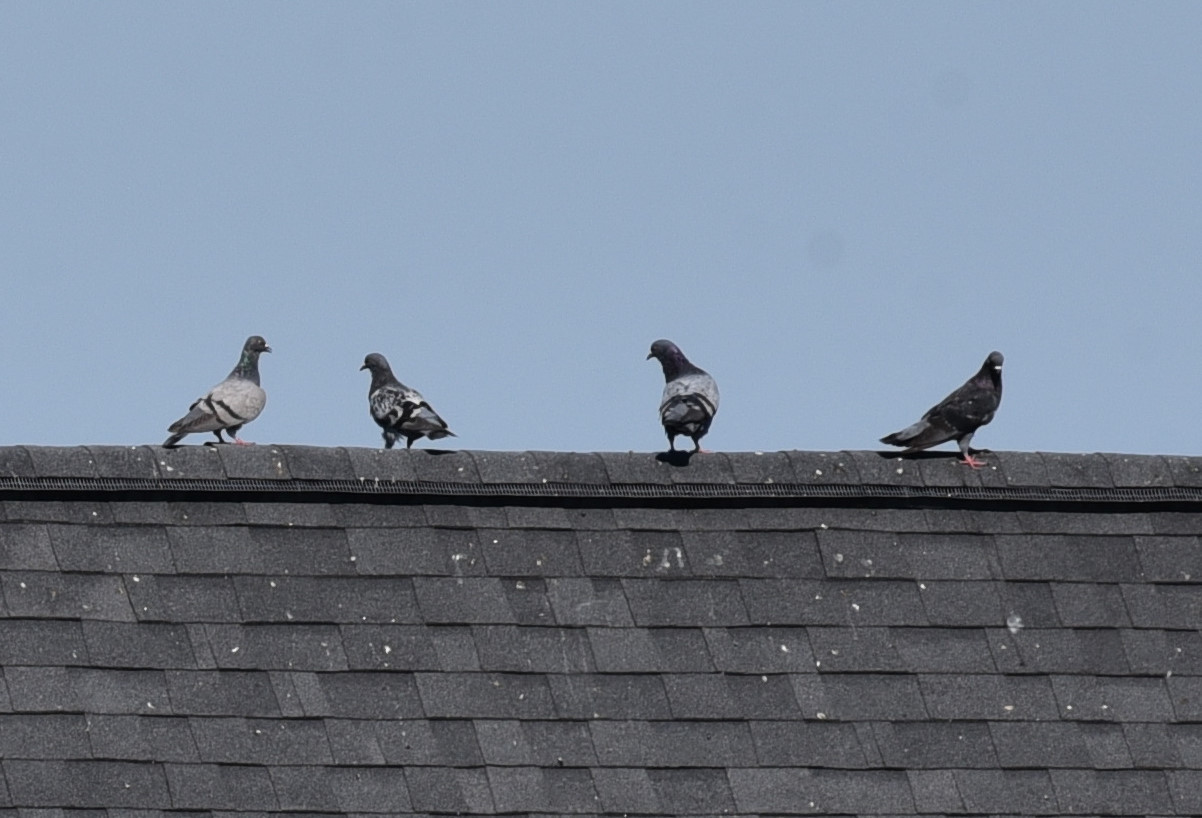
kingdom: Animalia
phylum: Chordata
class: Aves
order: Columbiformes
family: Columbidae
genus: Columba
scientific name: Columba livia
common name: Rock pigeon
